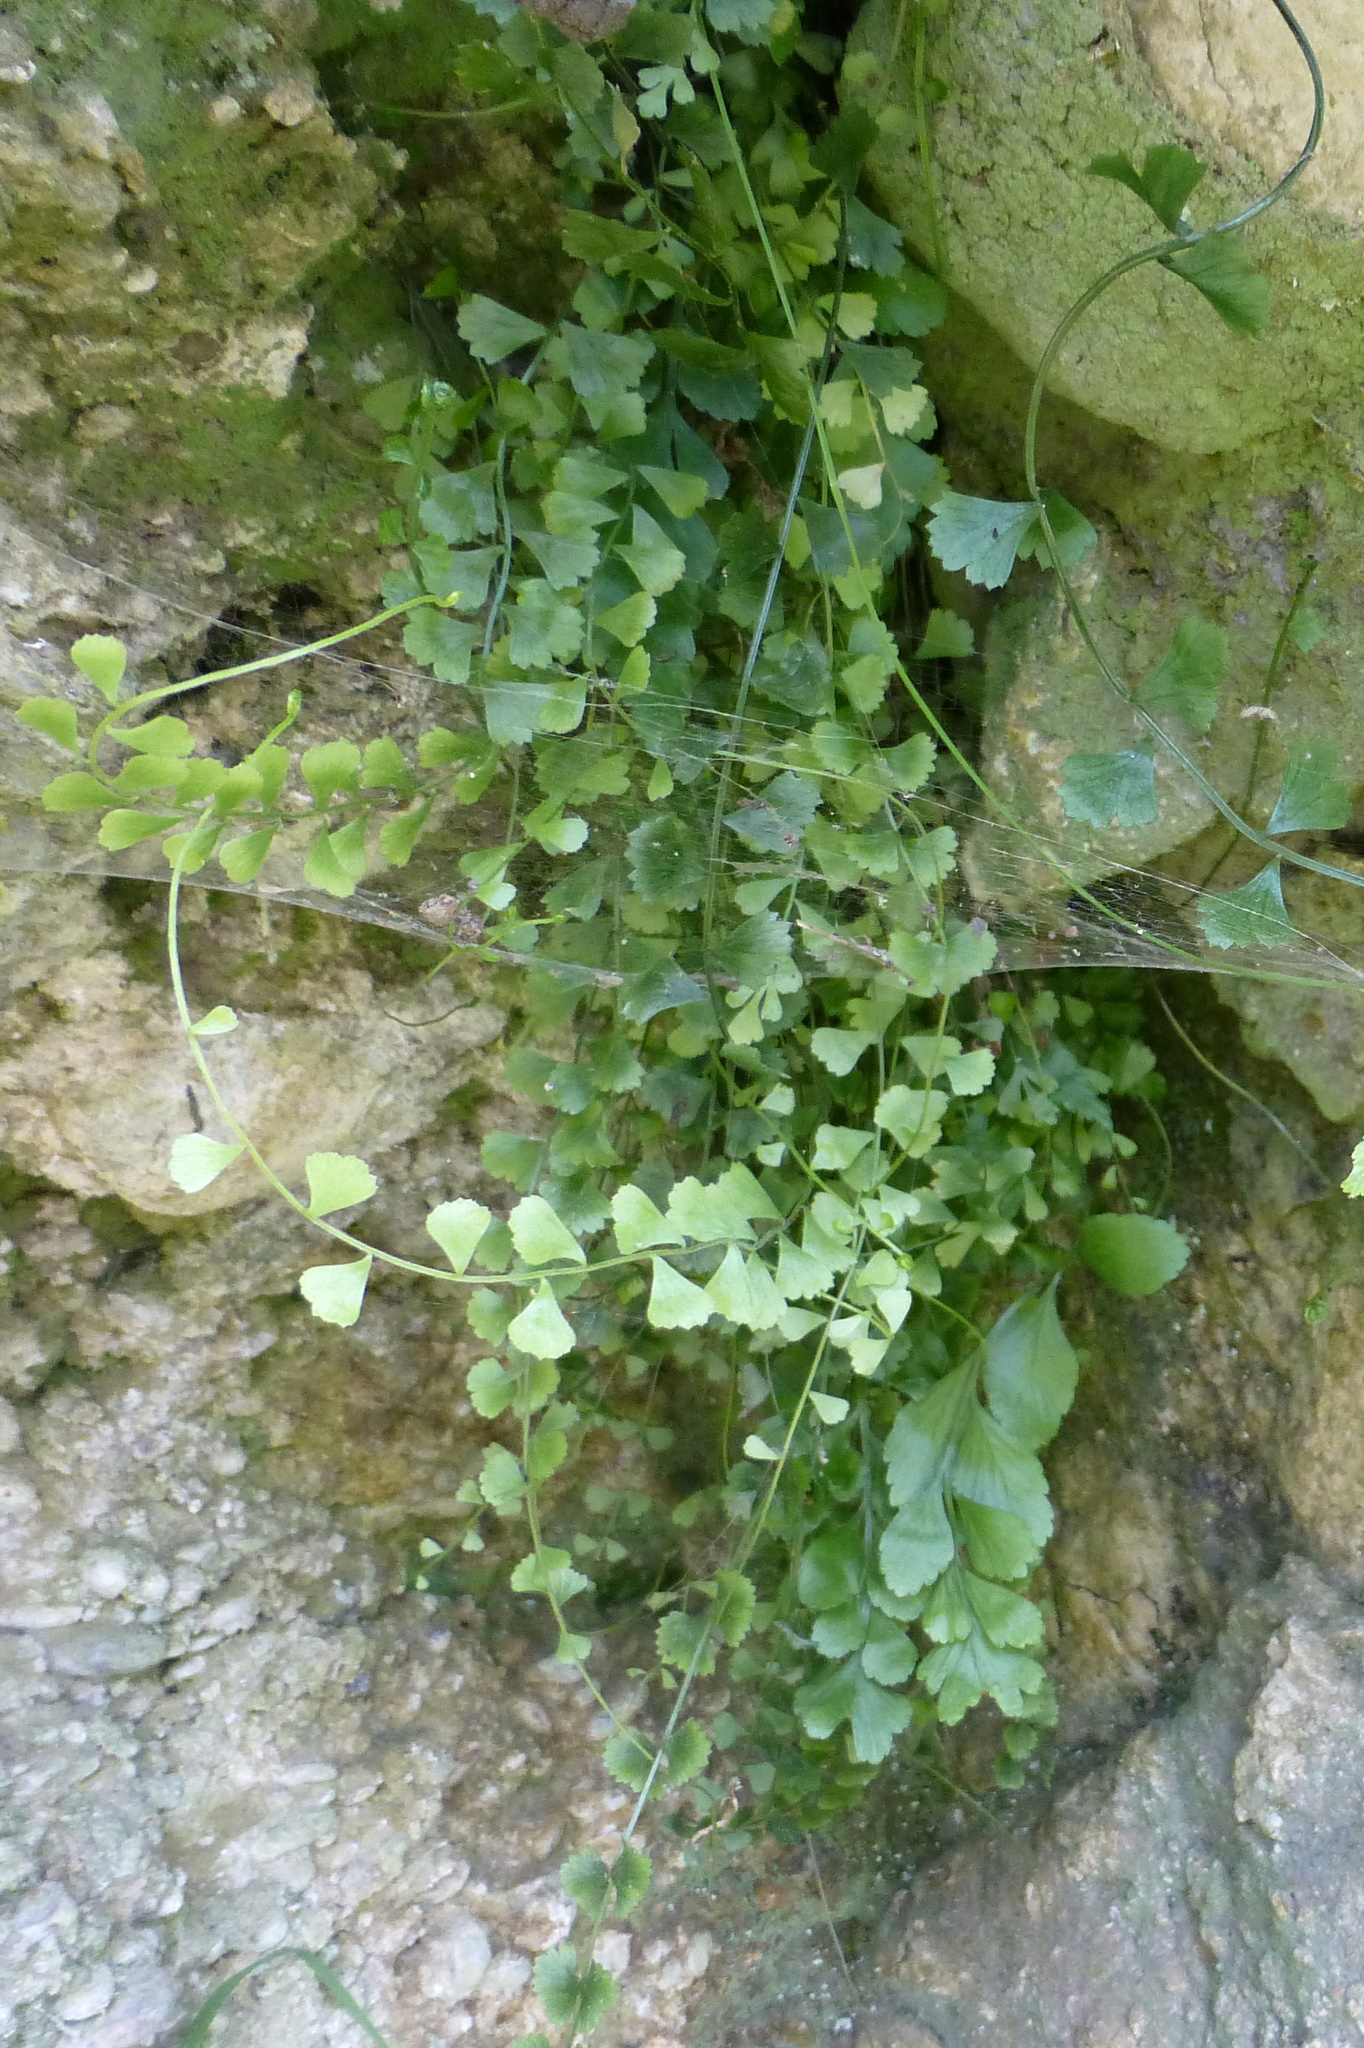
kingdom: Plantae
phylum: Tracheophyta
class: Polypodiopsida
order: Polypodiales
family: Aspleniaceae
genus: Asplenium
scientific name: Asplenium flabellifolium
